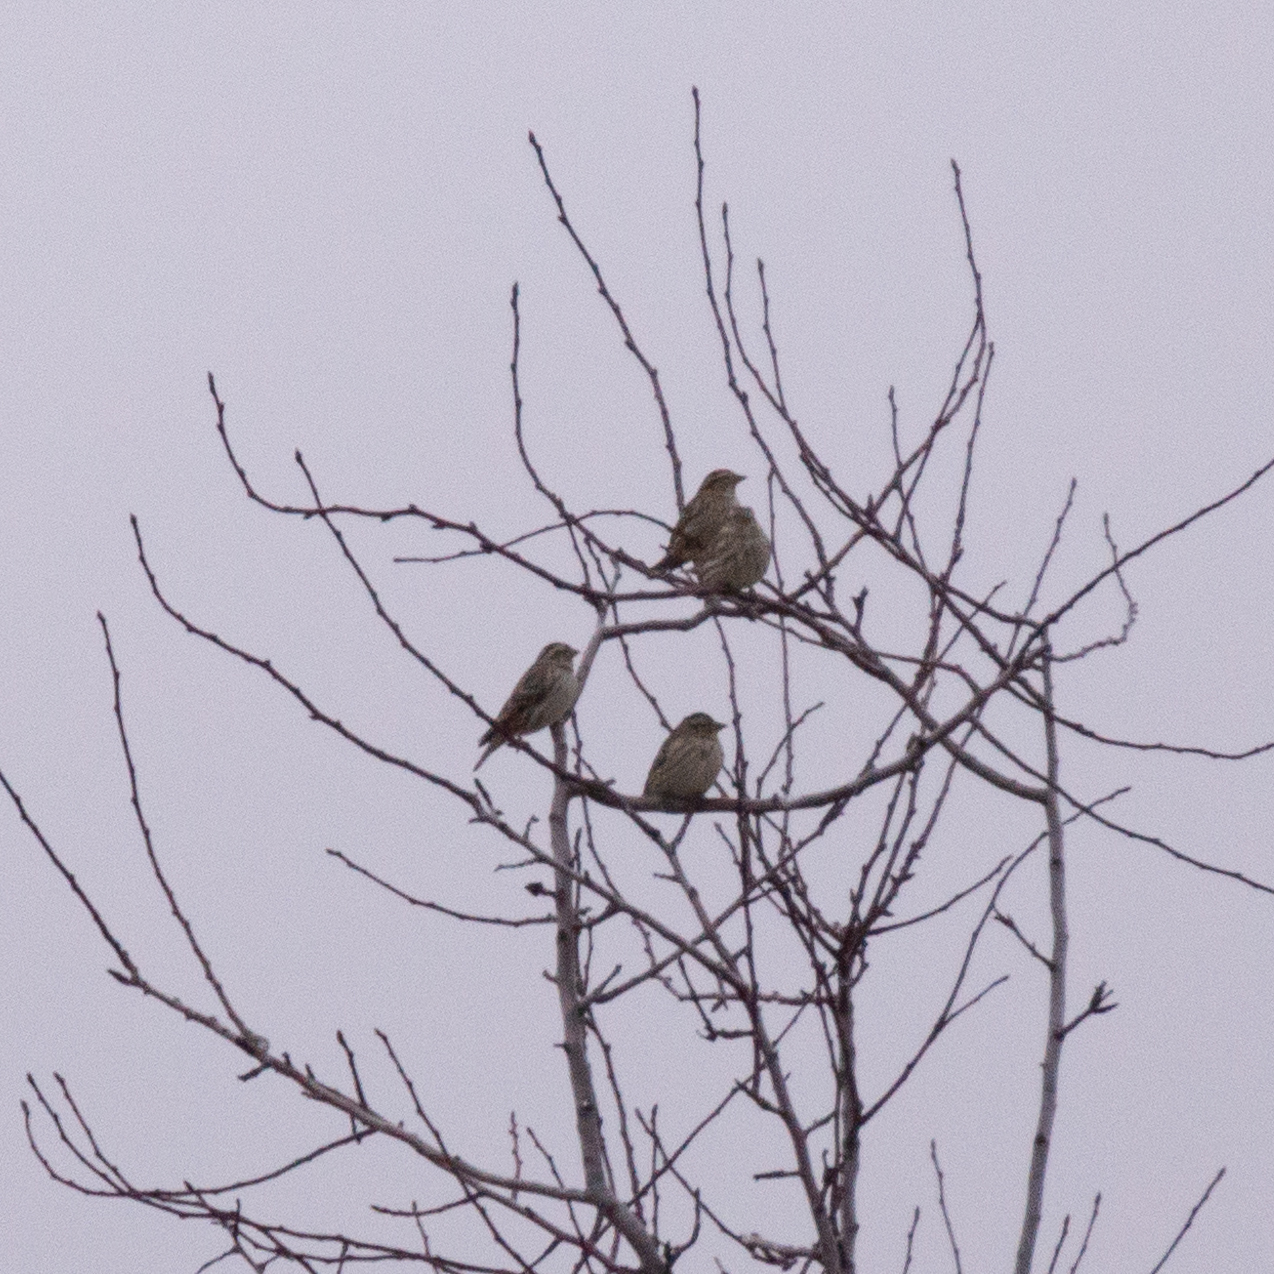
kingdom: Animalia
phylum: Chordata
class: Aves
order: Passeriformes
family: Passeridae
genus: Petronia
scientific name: Petronia petronia
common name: Rock sparrow
